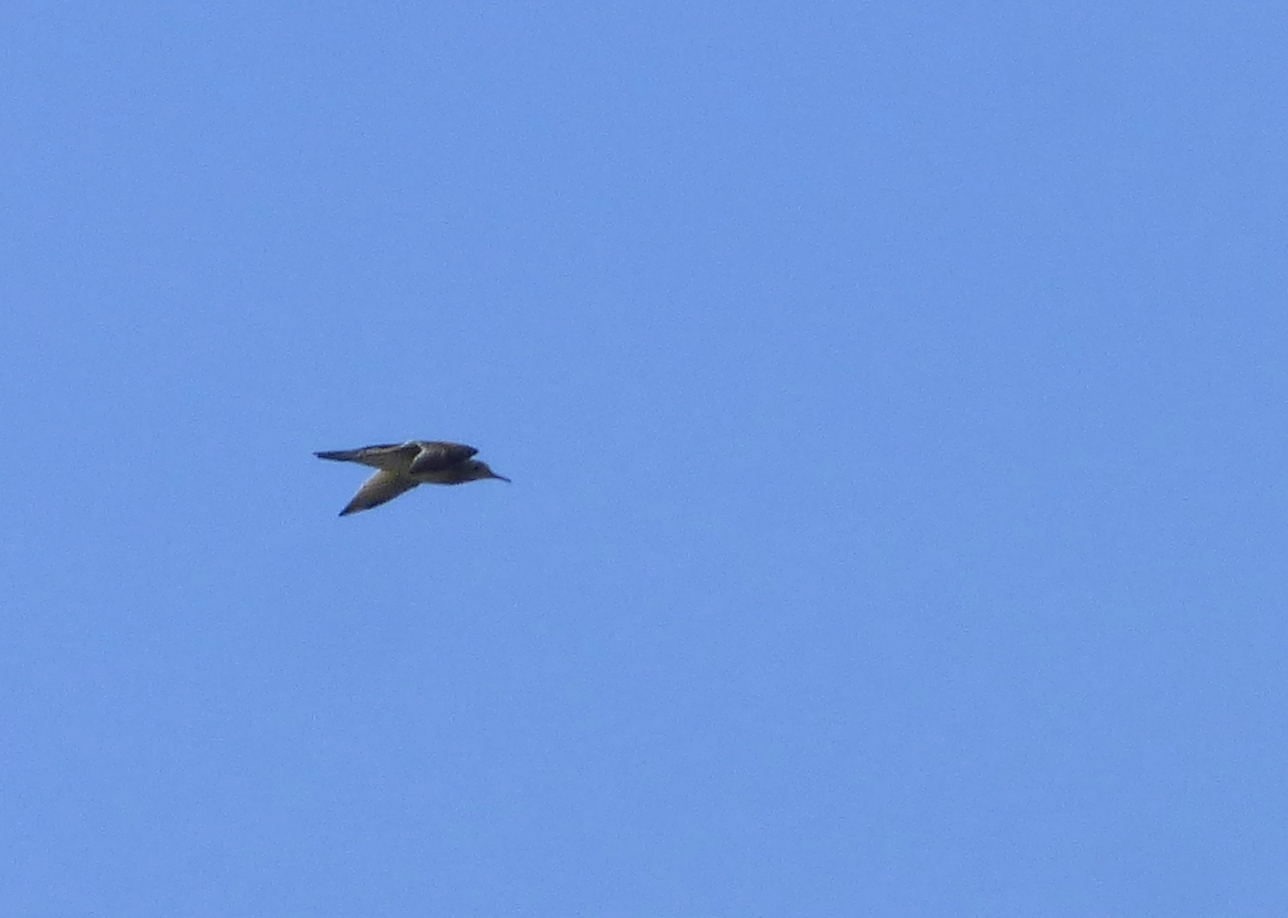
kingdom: Animalia
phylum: Chordata
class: Aves
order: Charadriiformes
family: Scolopacidae
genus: Bartramia
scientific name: Bartramia longicauda
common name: Upland sandpiper
